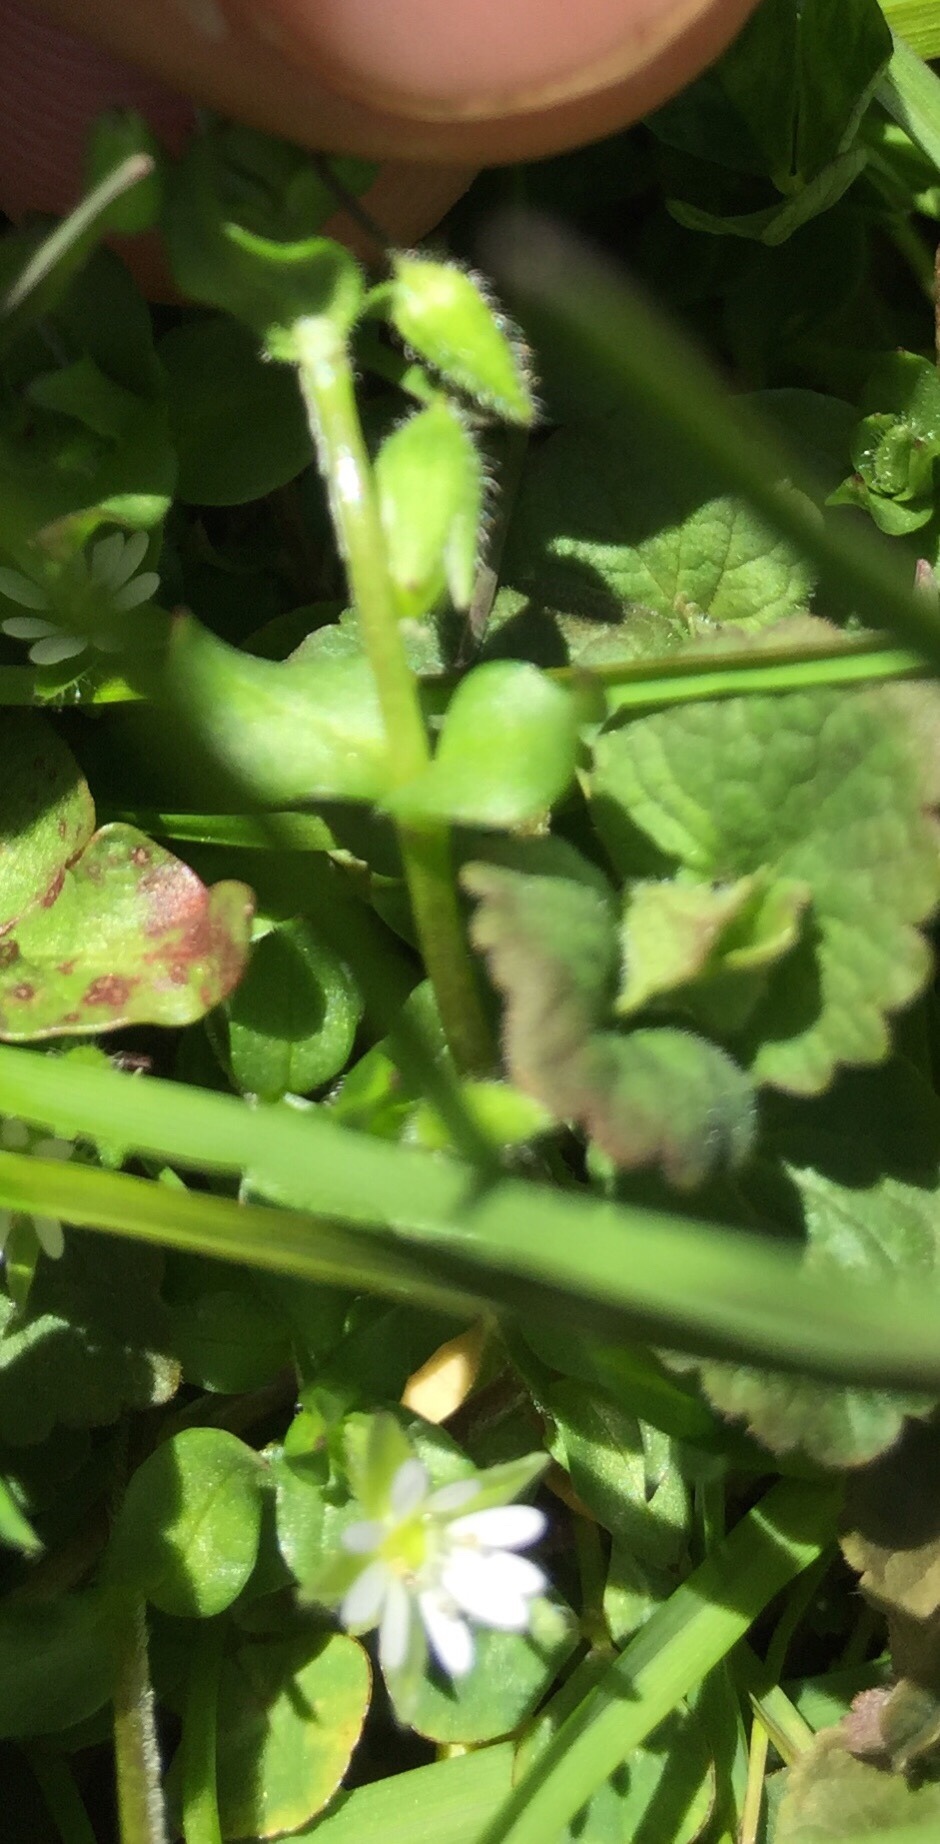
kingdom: Plantae
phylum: Tracheophyta
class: Magnoliopsida
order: Caryophyllales
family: Caryophyllaceae
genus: Stellaria
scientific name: Stellaria media
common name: Common chickweed
